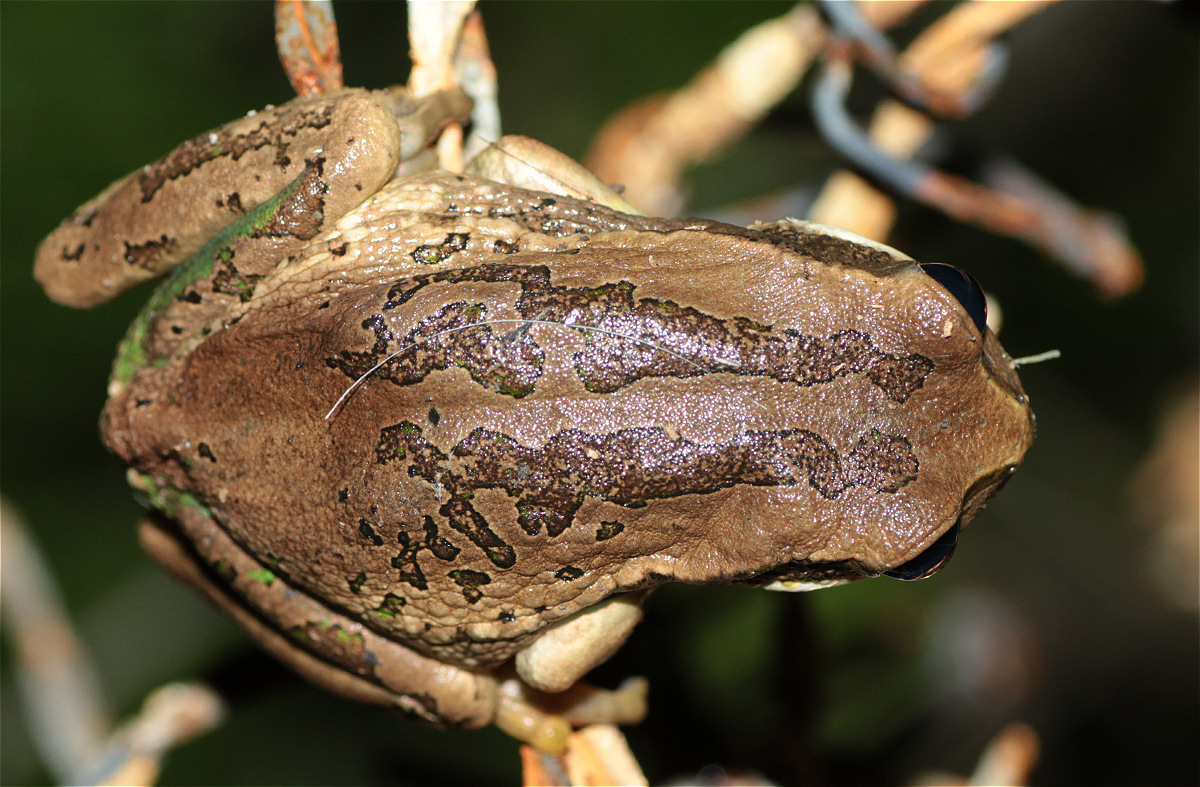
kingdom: Animalia
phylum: Chordata
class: Amphibia
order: Anura
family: Hemiphractidae
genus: Gastrotheca
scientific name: Gastrotheca cuencana
